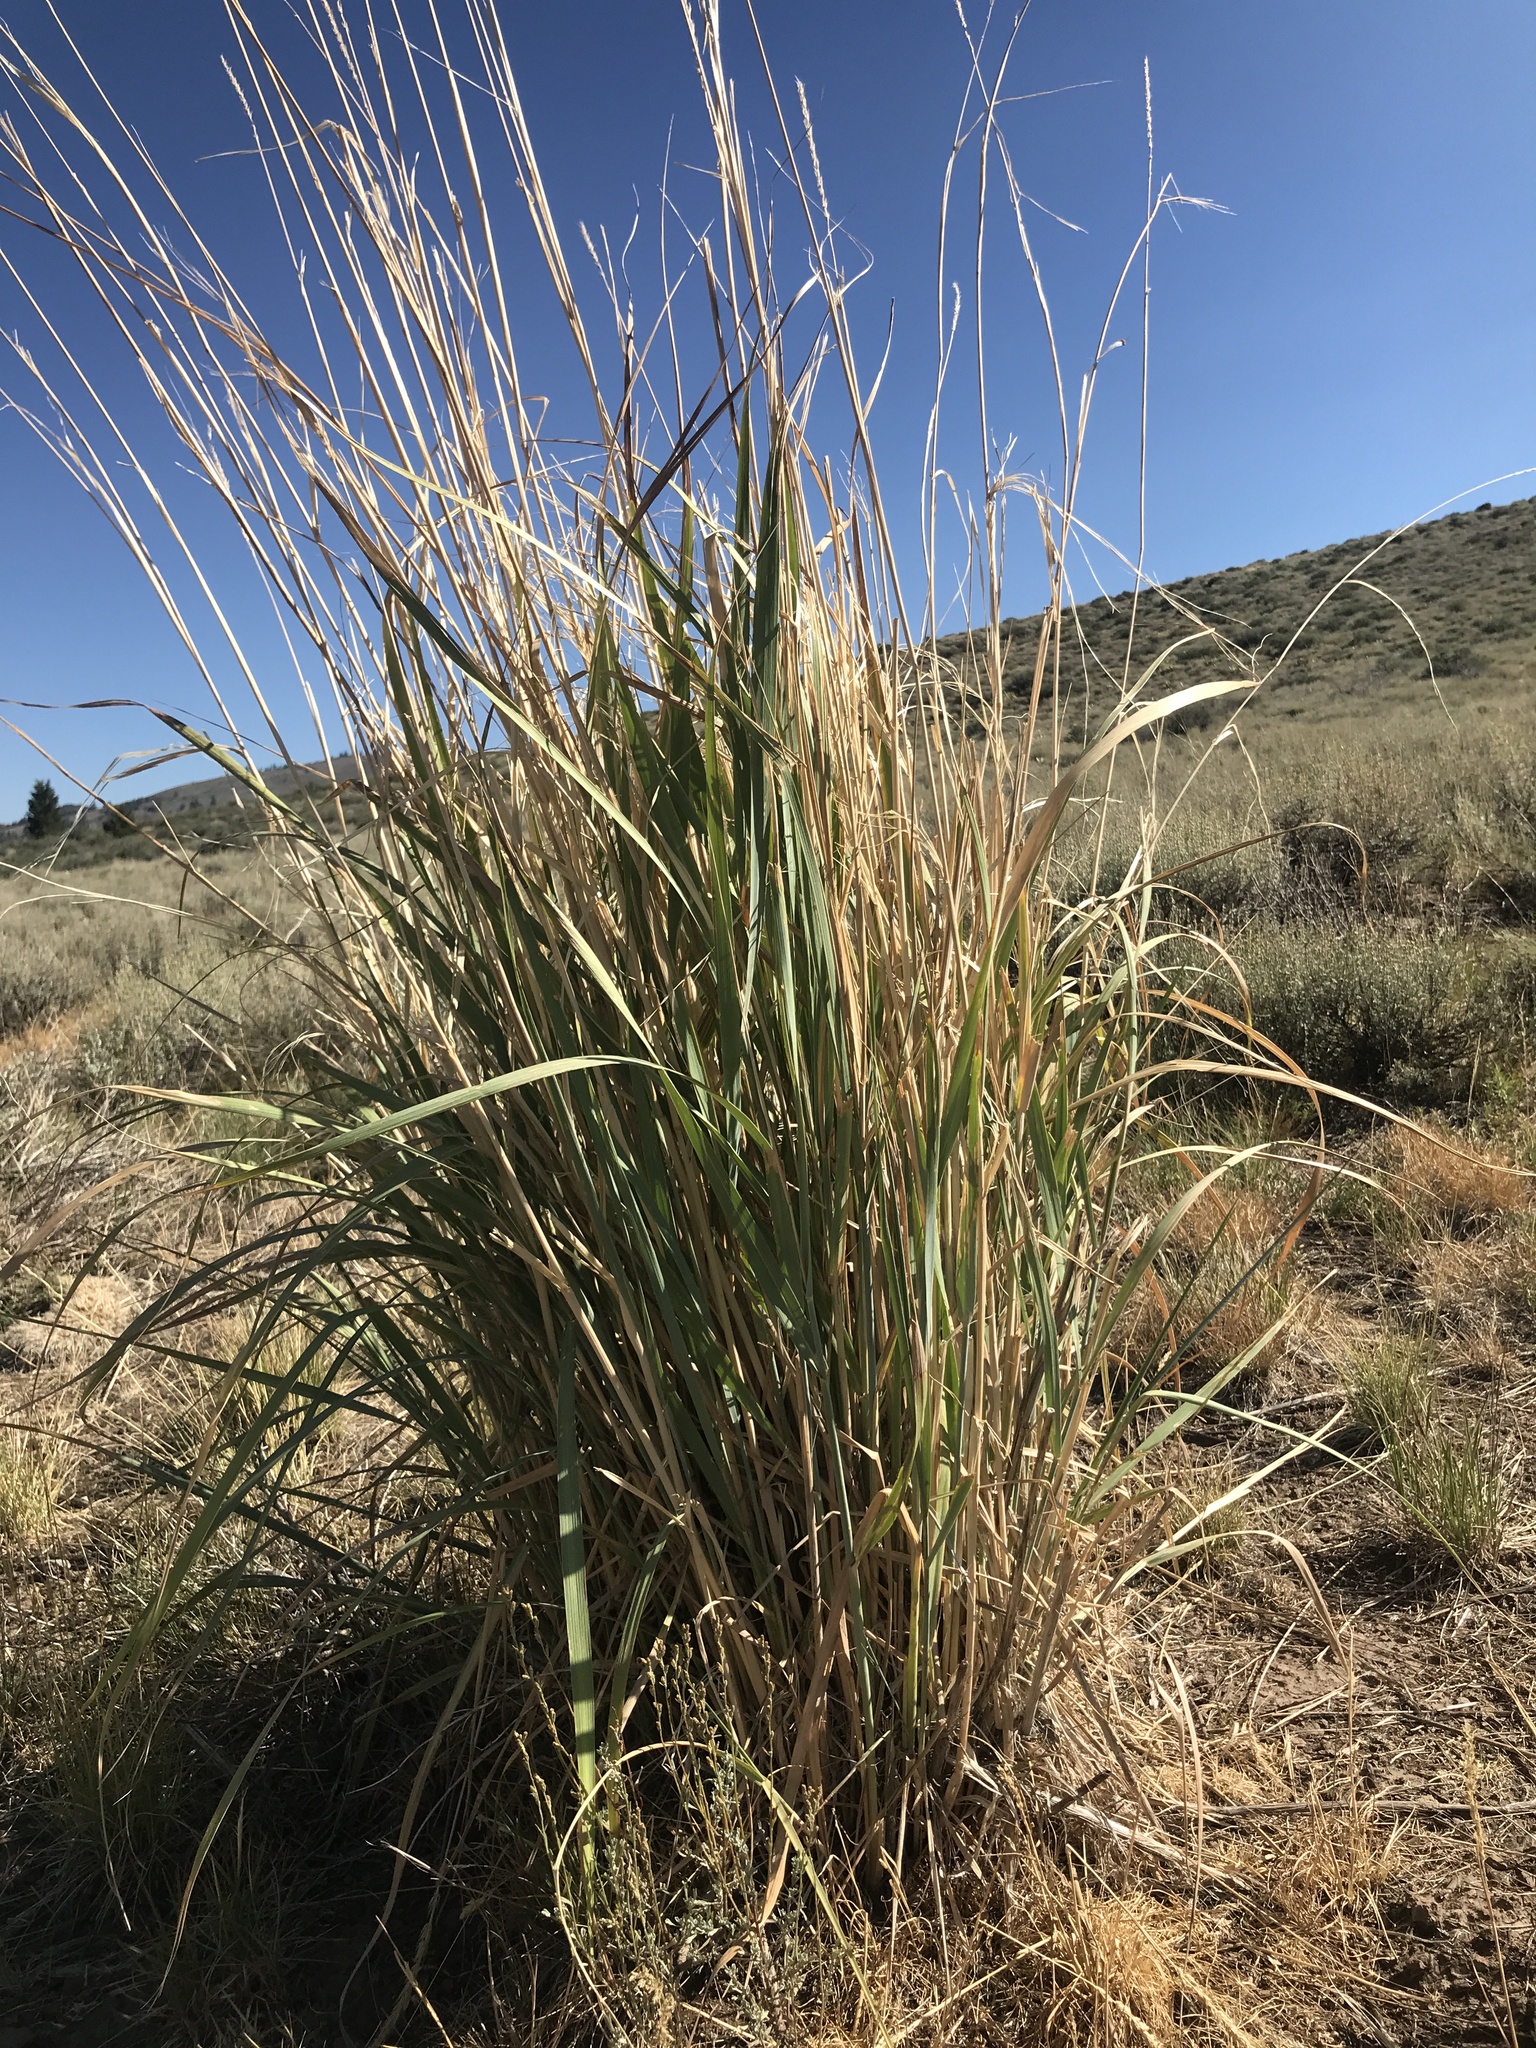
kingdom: Plantae
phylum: Tracheophyta
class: Liliopsida
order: Poales
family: Poaceae
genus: Leymus
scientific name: Leymus cinereus
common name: Basin wild rye
